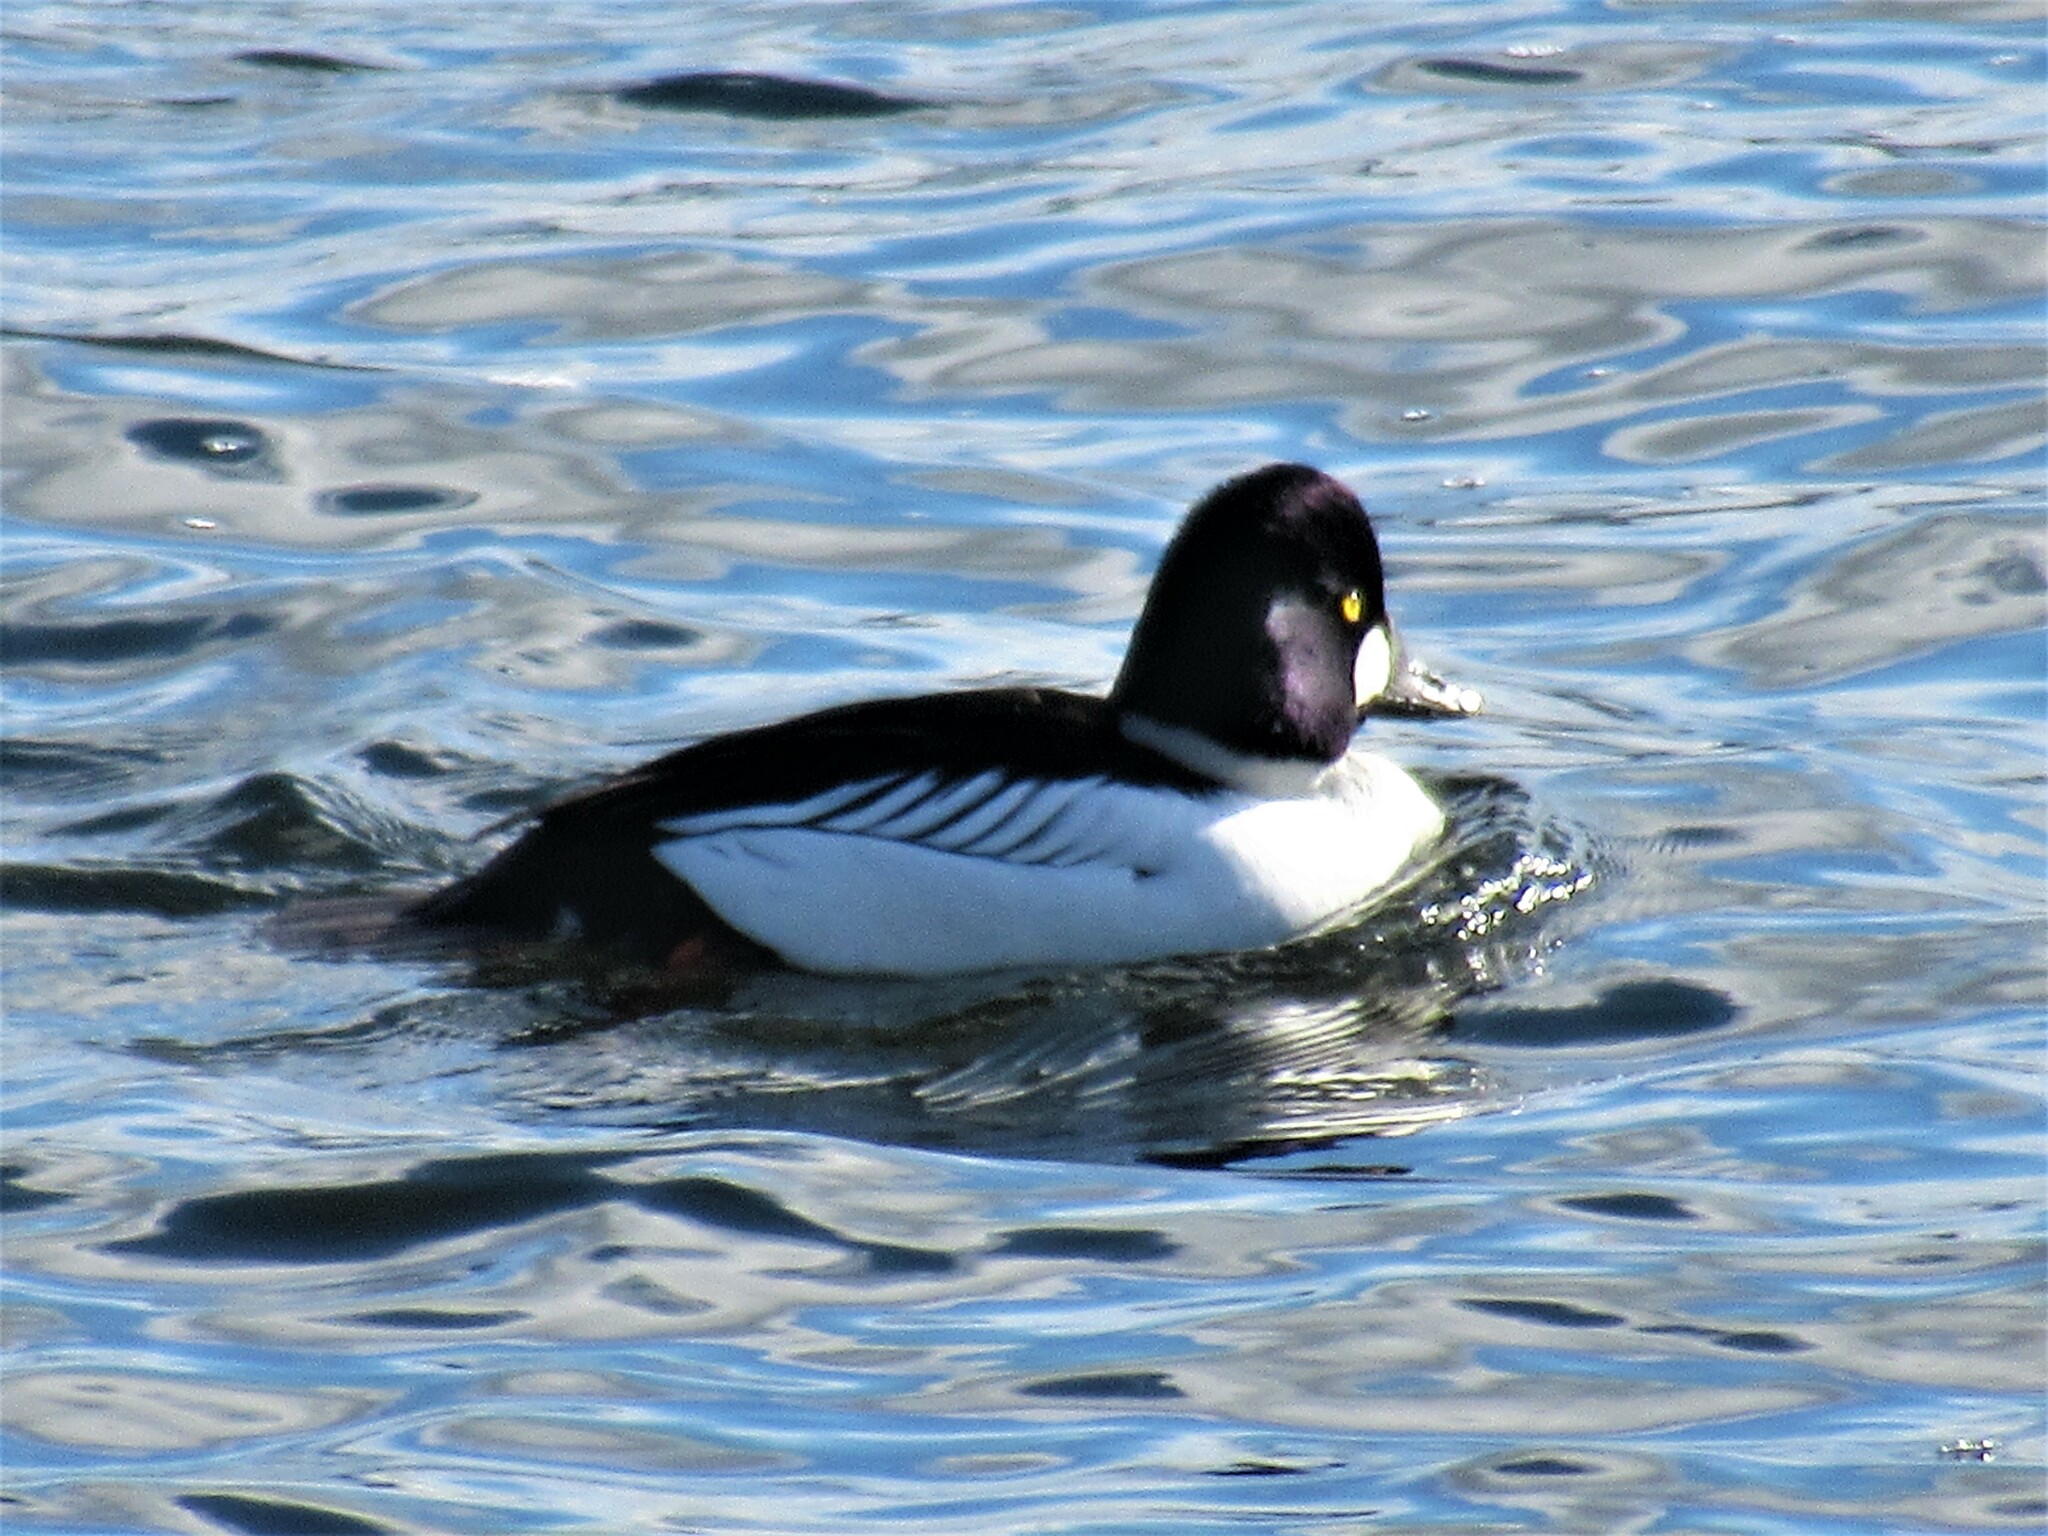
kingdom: Animalia
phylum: Chordata
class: Aves
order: Anseriformes
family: Anatidae
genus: Bucephala
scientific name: Bucephala clangula
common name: Common goldeneye
